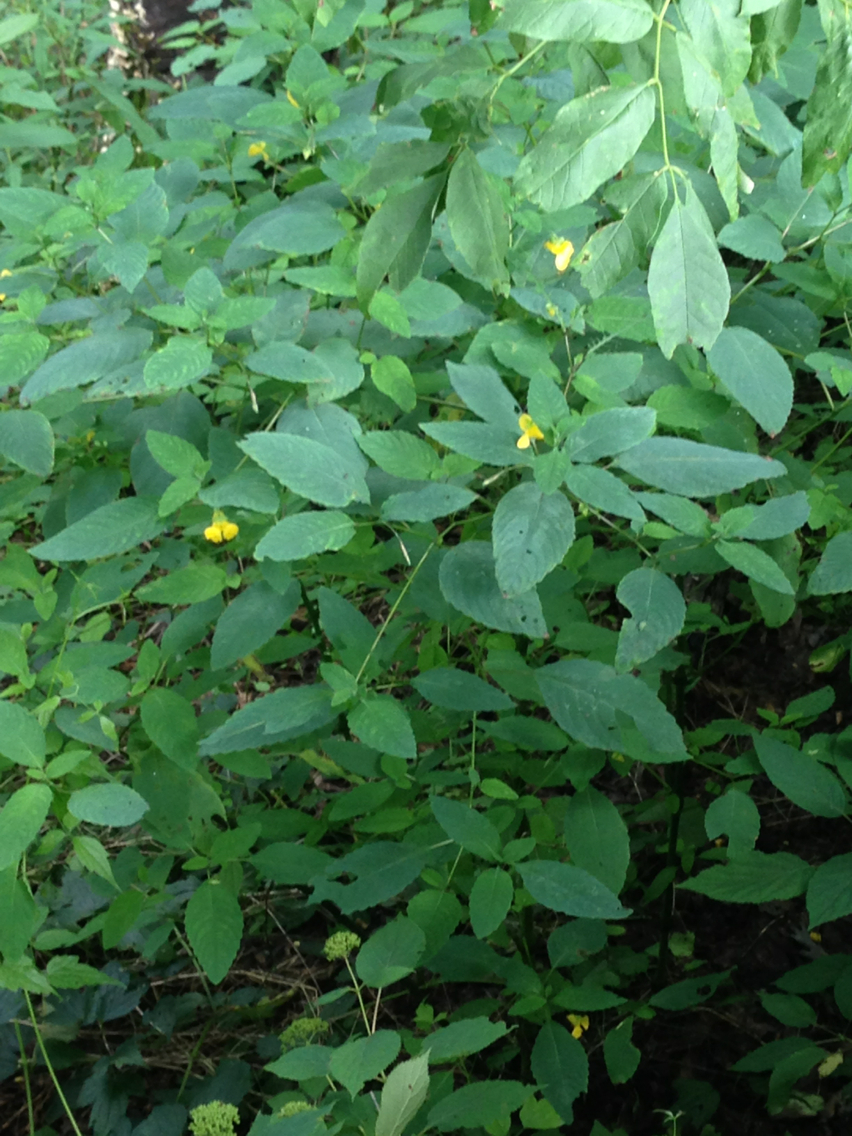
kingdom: Plantae
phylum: Tracheophyta
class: Magnoliopsida
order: Ericales
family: Balsaminaceae
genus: Impatiens
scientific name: Impatiens pallida
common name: Pale snapweed
